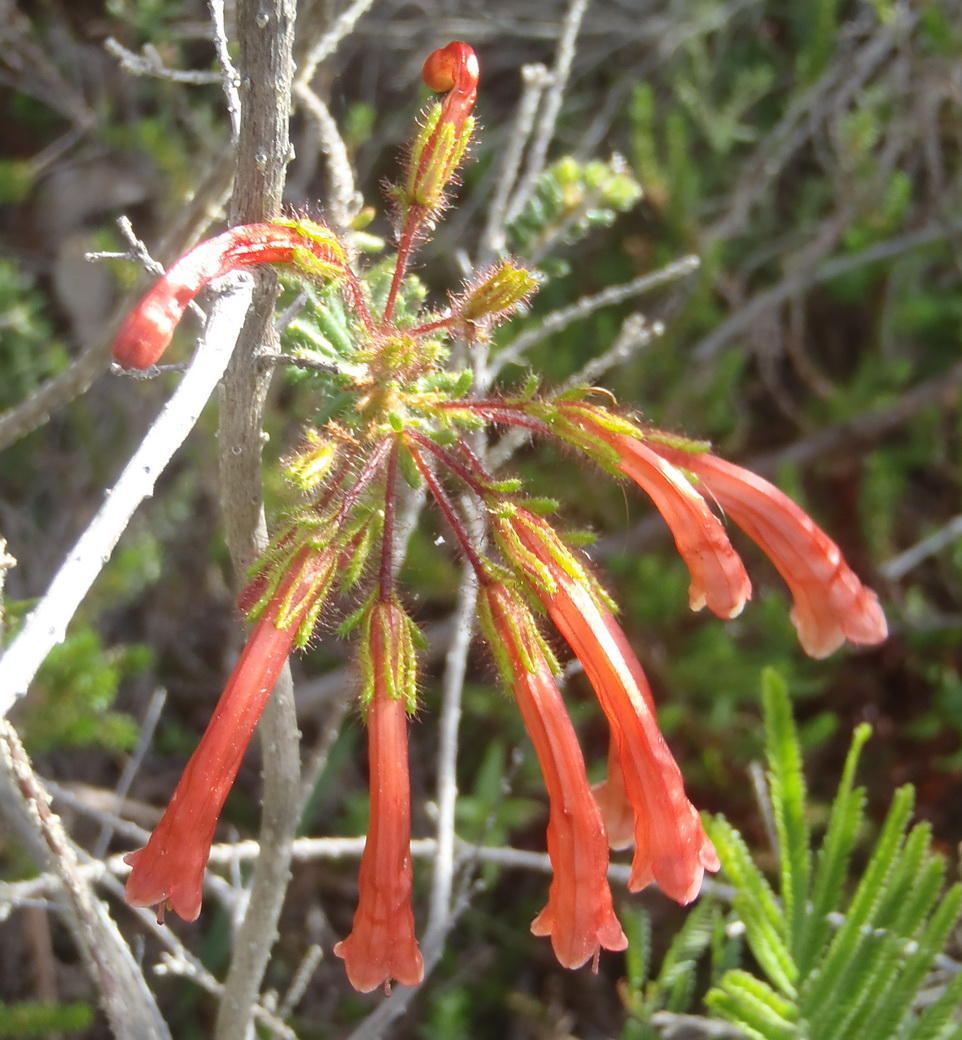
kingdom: Plantae
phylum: Tracheophyta
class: Magnoliopsida
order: Ericales
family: Ericaceae
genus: Erica
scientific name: Erica glandulosa
